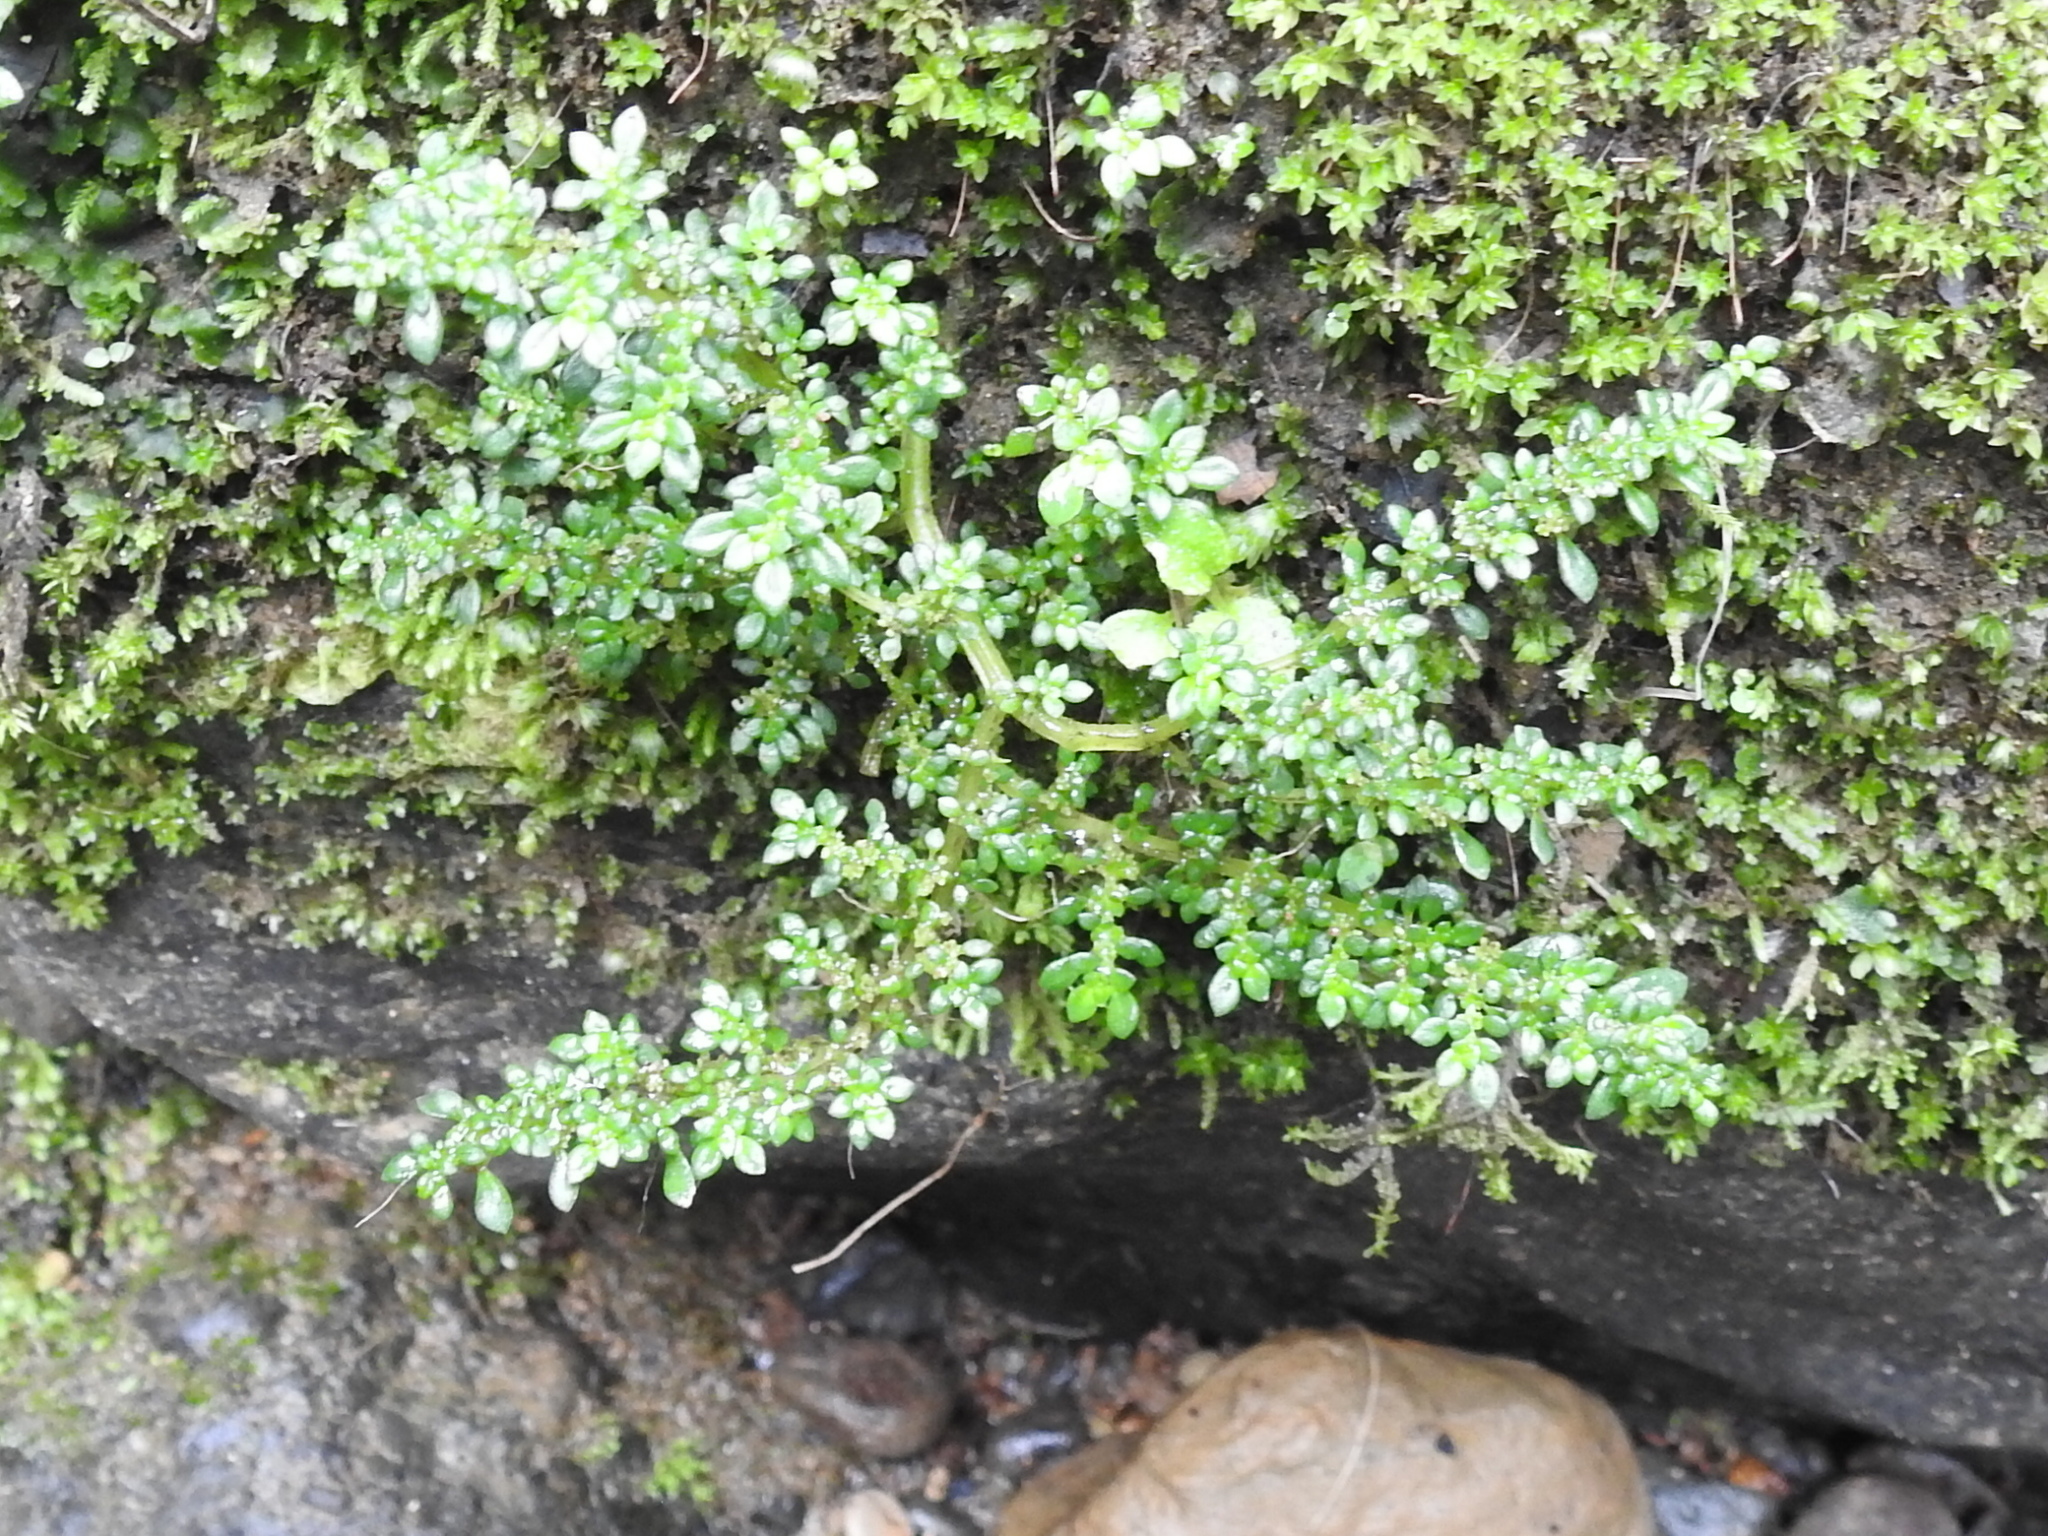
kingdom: Plantae
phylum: Tracheophyta
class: Magnoliopsida
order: Rosales
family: Urticaceae
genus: Pilea
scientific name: Pilea microphylla
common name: Artillery-plant
